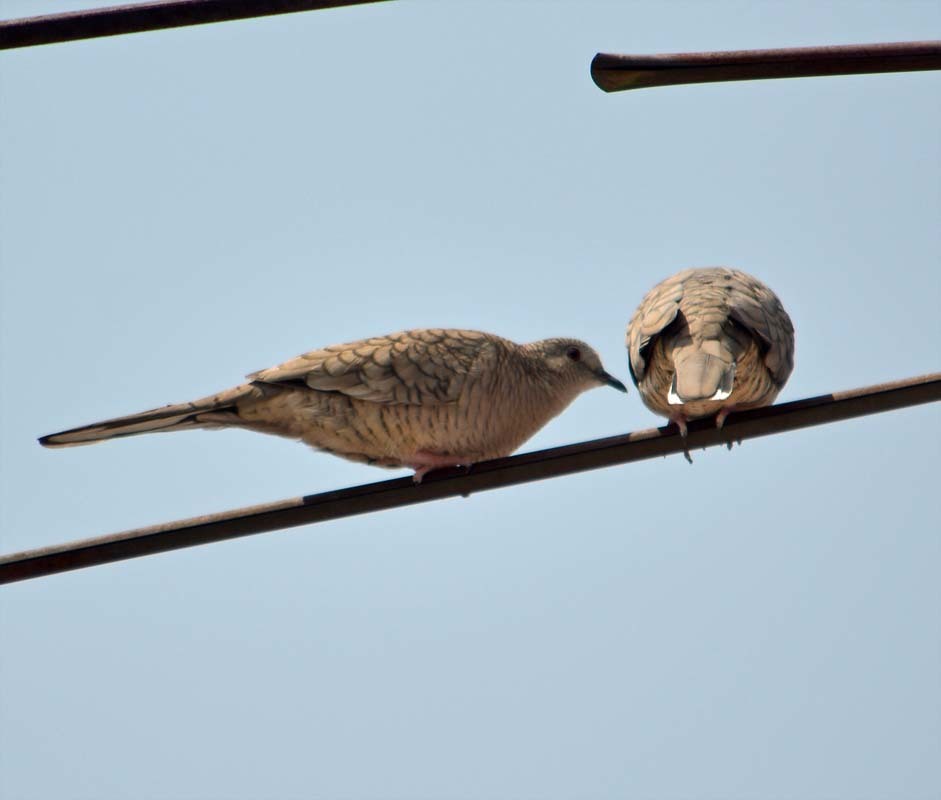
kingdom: Animalia
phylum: Chordata
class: Aves
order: Columbiformes
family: Columbidae
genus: Columbina
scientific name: Columbina inca
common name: Inca dove
